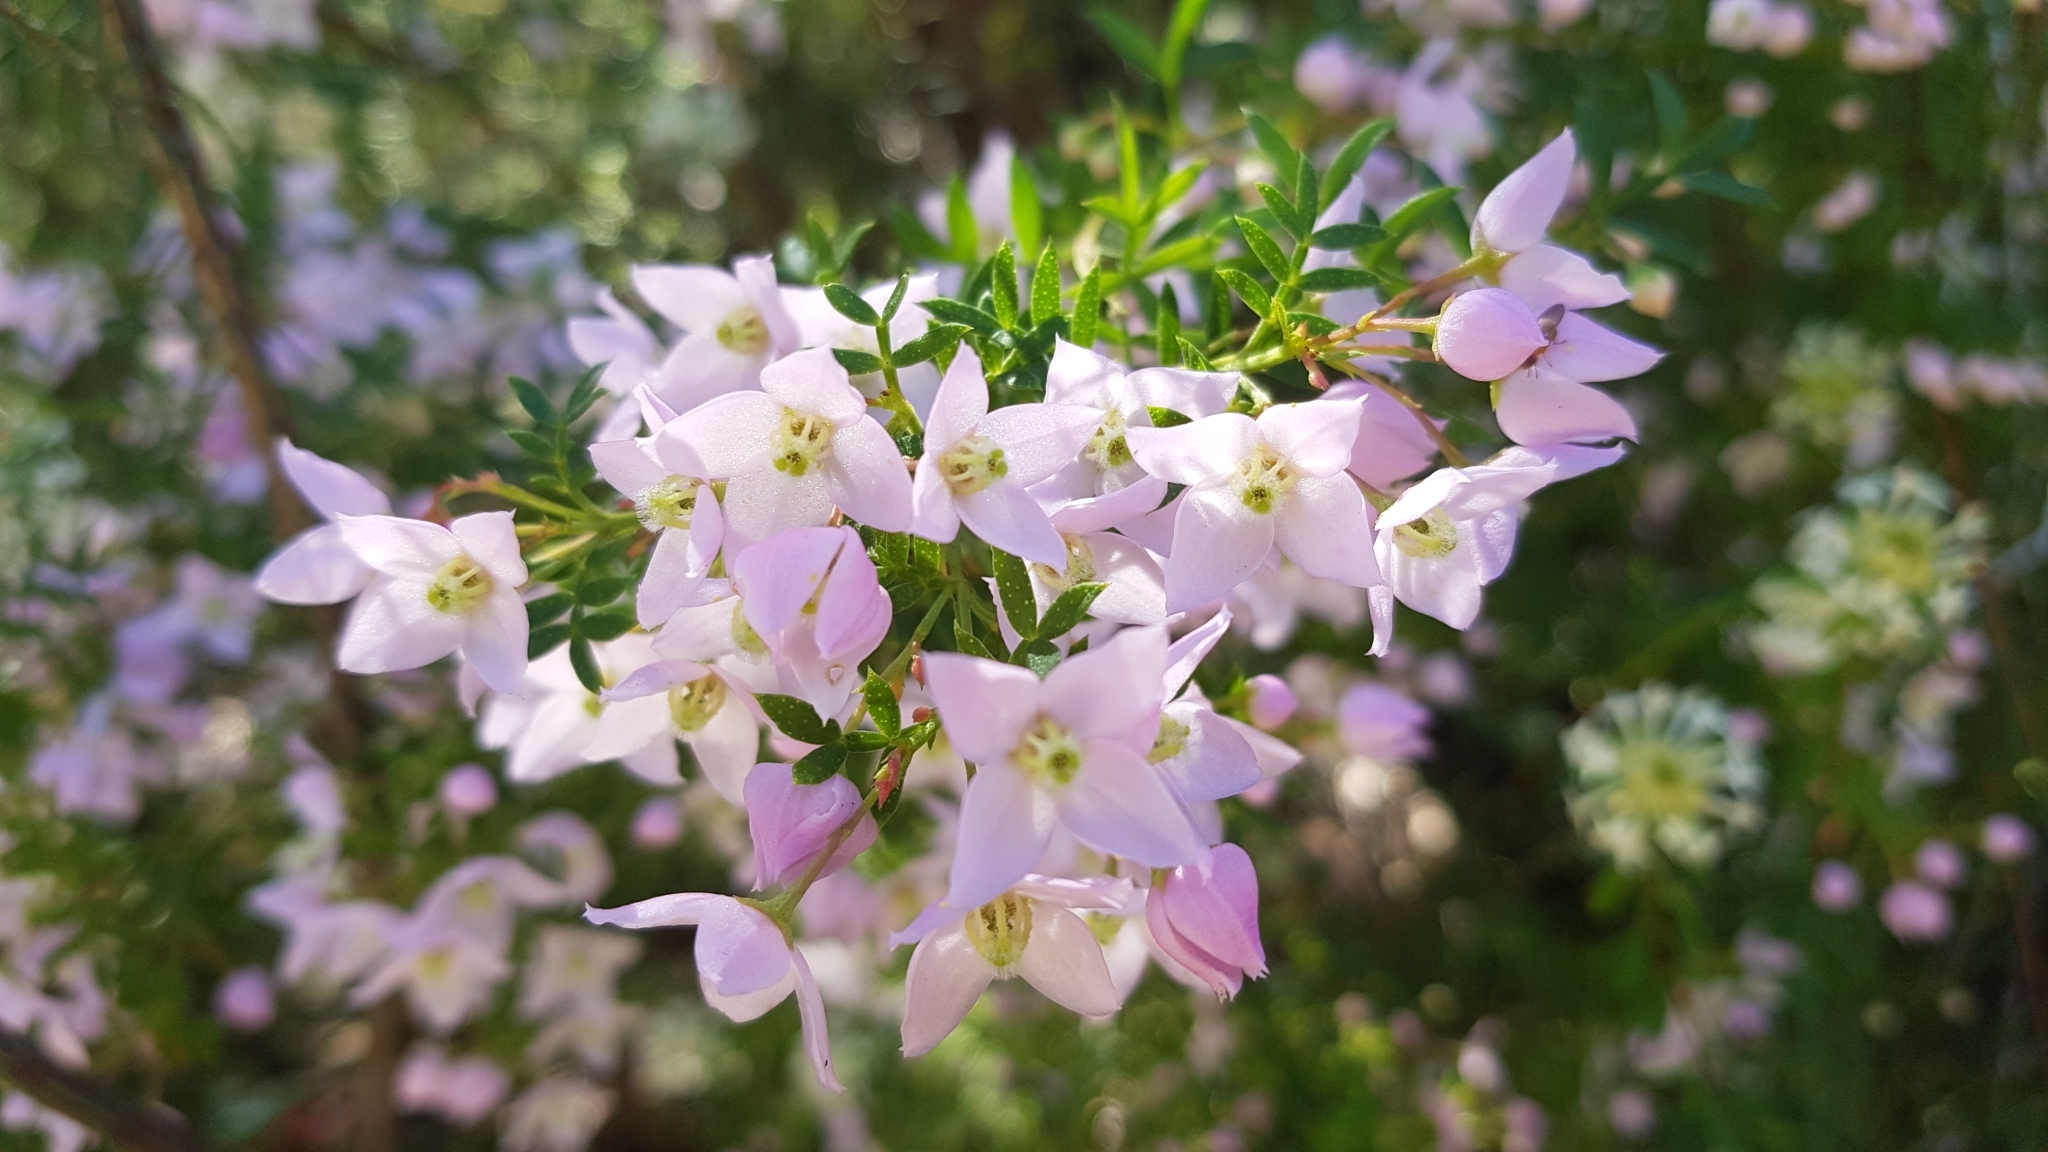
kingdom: Plantae
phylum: Tracheophyta
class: Magnoliopsida
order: Sapindales
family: Rutaceae
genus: Boronia
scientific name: Boronia floribunda
